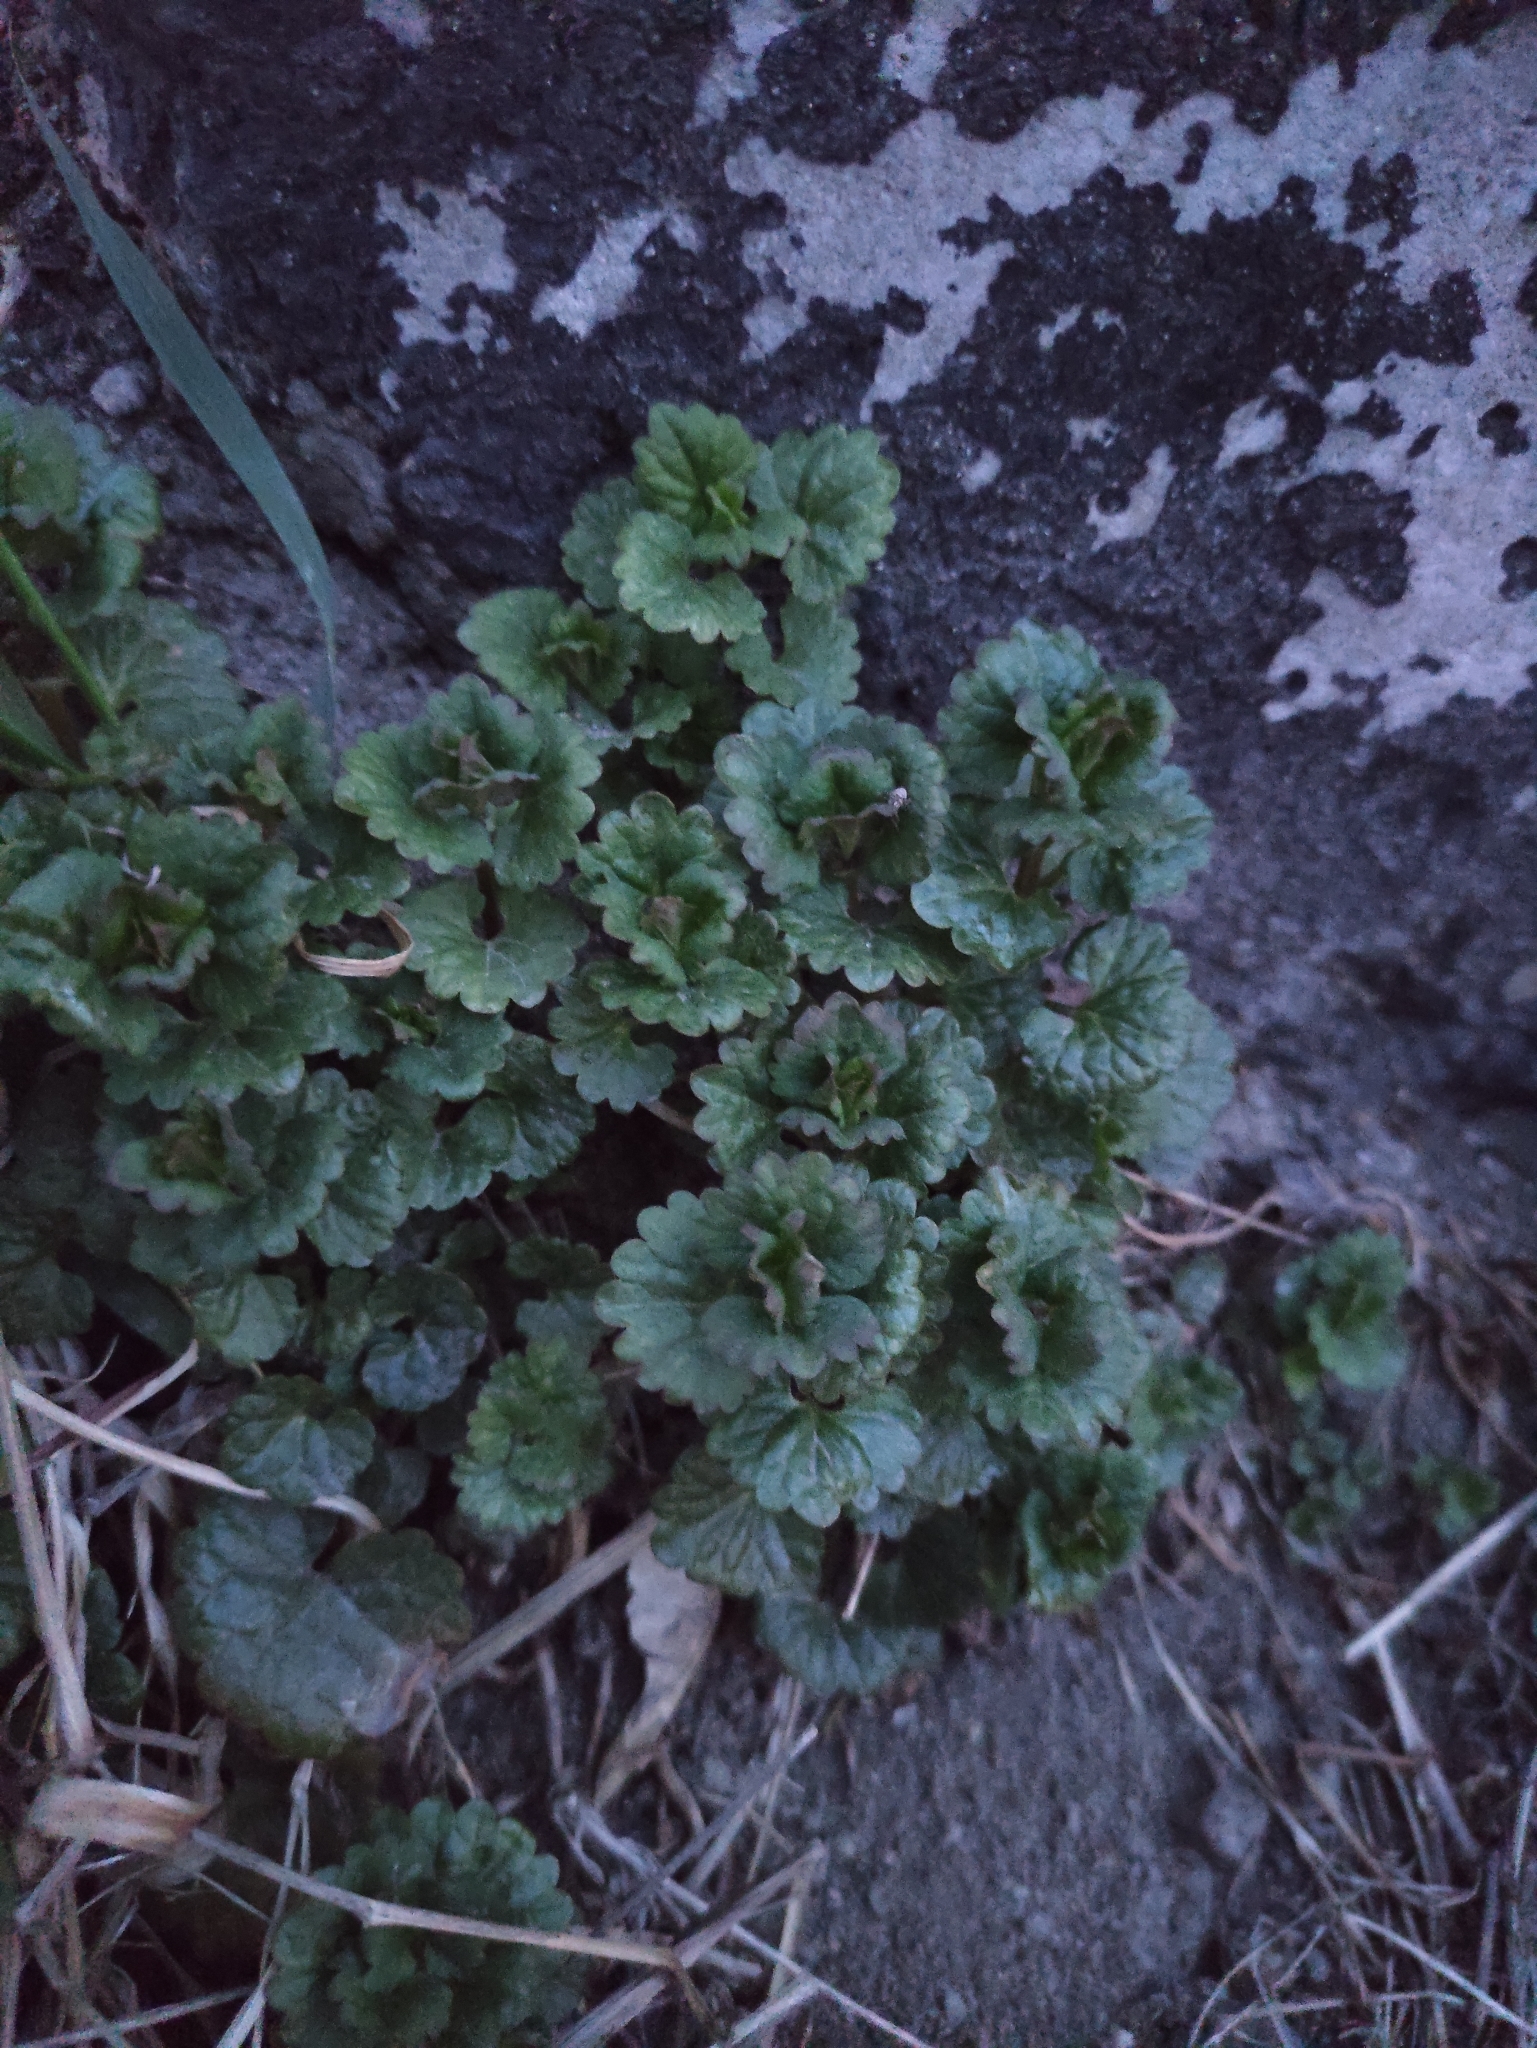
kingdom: Plantae
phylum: Tracheophyta
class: Magnoliopsida
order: Lamiales
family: Lamiaceae
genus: Glechoma
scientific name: Glechoma hederacea
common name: Ground ivy
